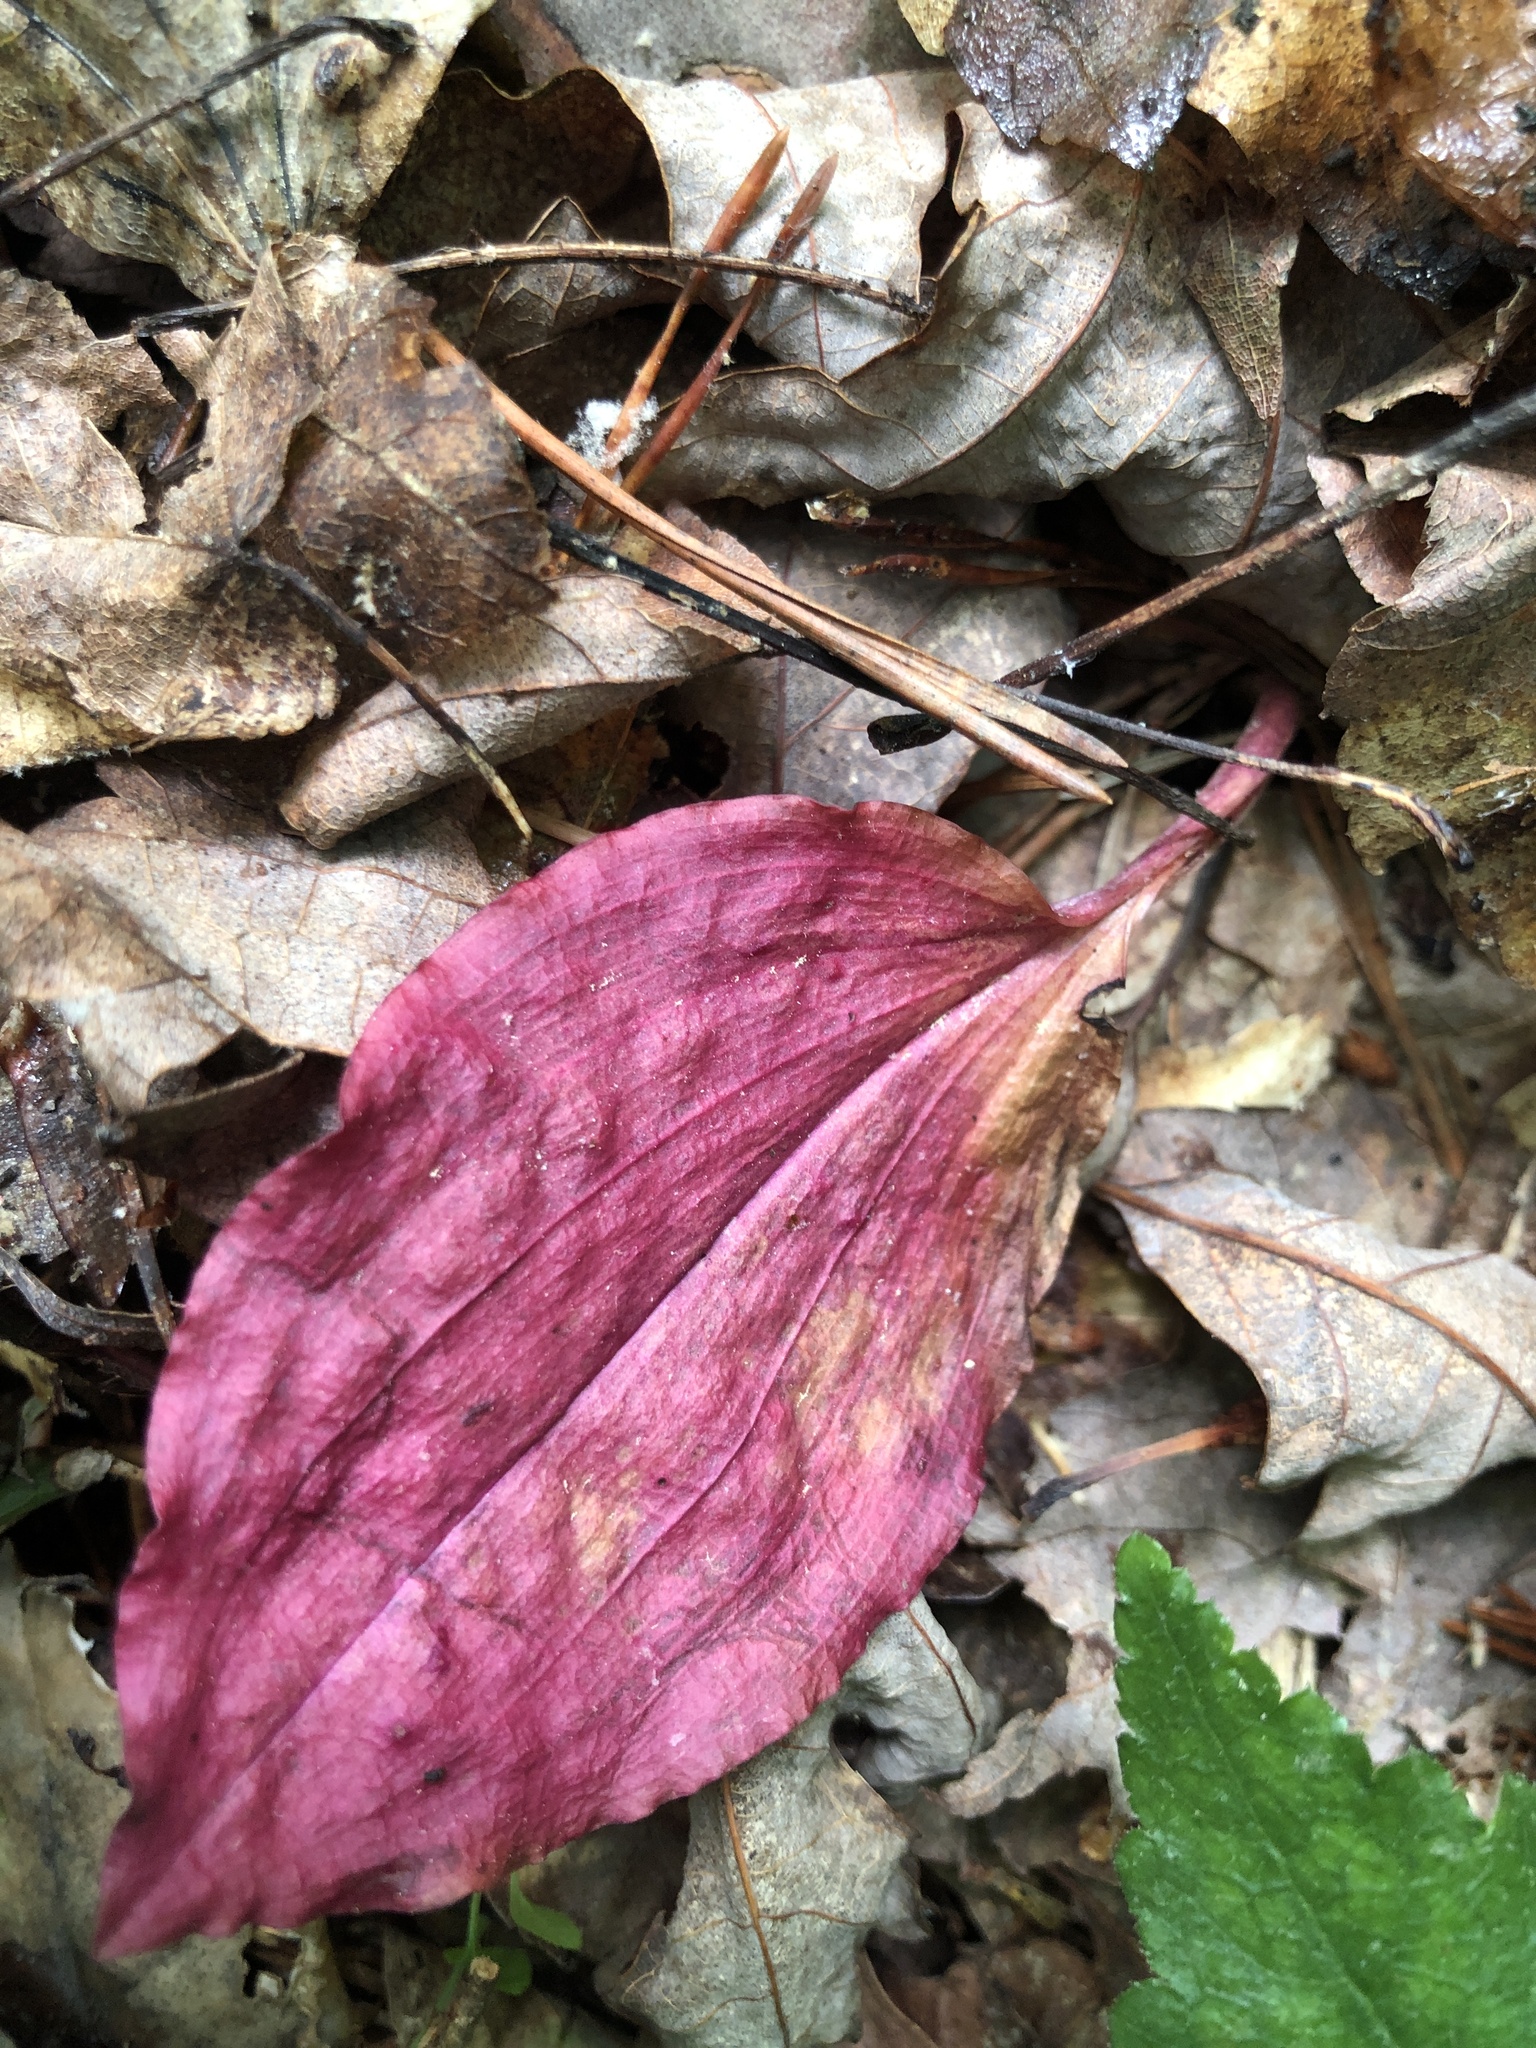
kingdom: Plantae
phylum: Tracheophyta
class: Liliopsida
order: Asparagales
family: Orchidaceae
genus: Tipularia
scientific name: Tipularia discolor
